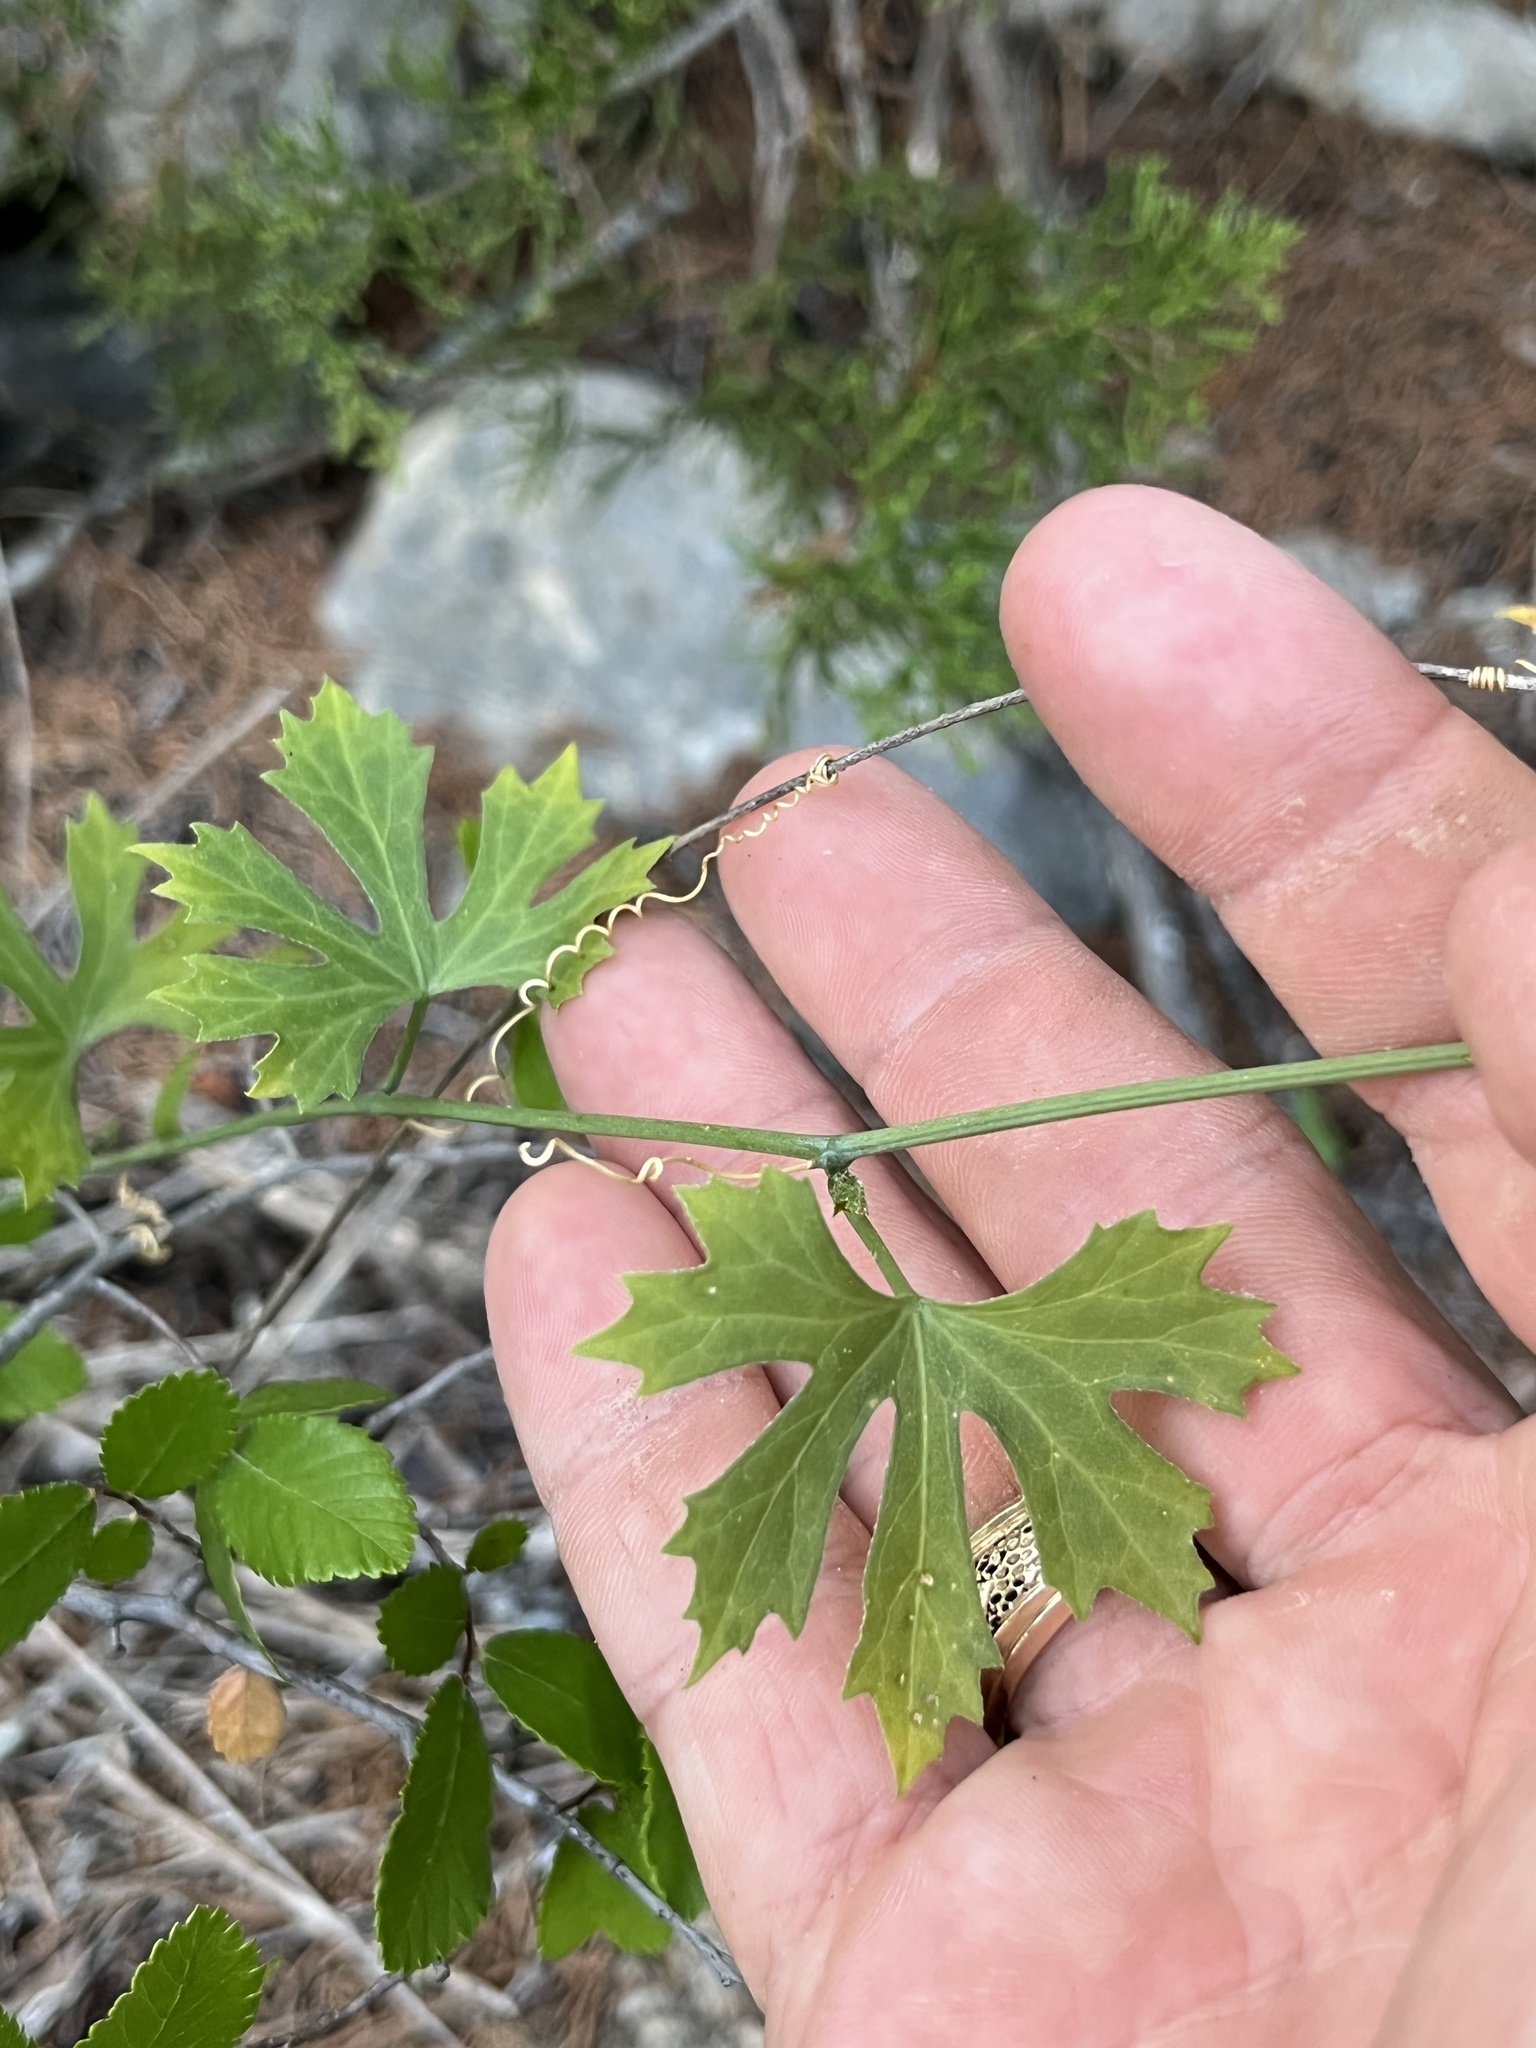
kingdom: Plantae
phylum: Tracheophyta
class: Magnoliopsida
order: Cucurbitales
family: Cucurbitaceae
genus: Ibervillea
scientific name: Ibervillea lindheimeri
